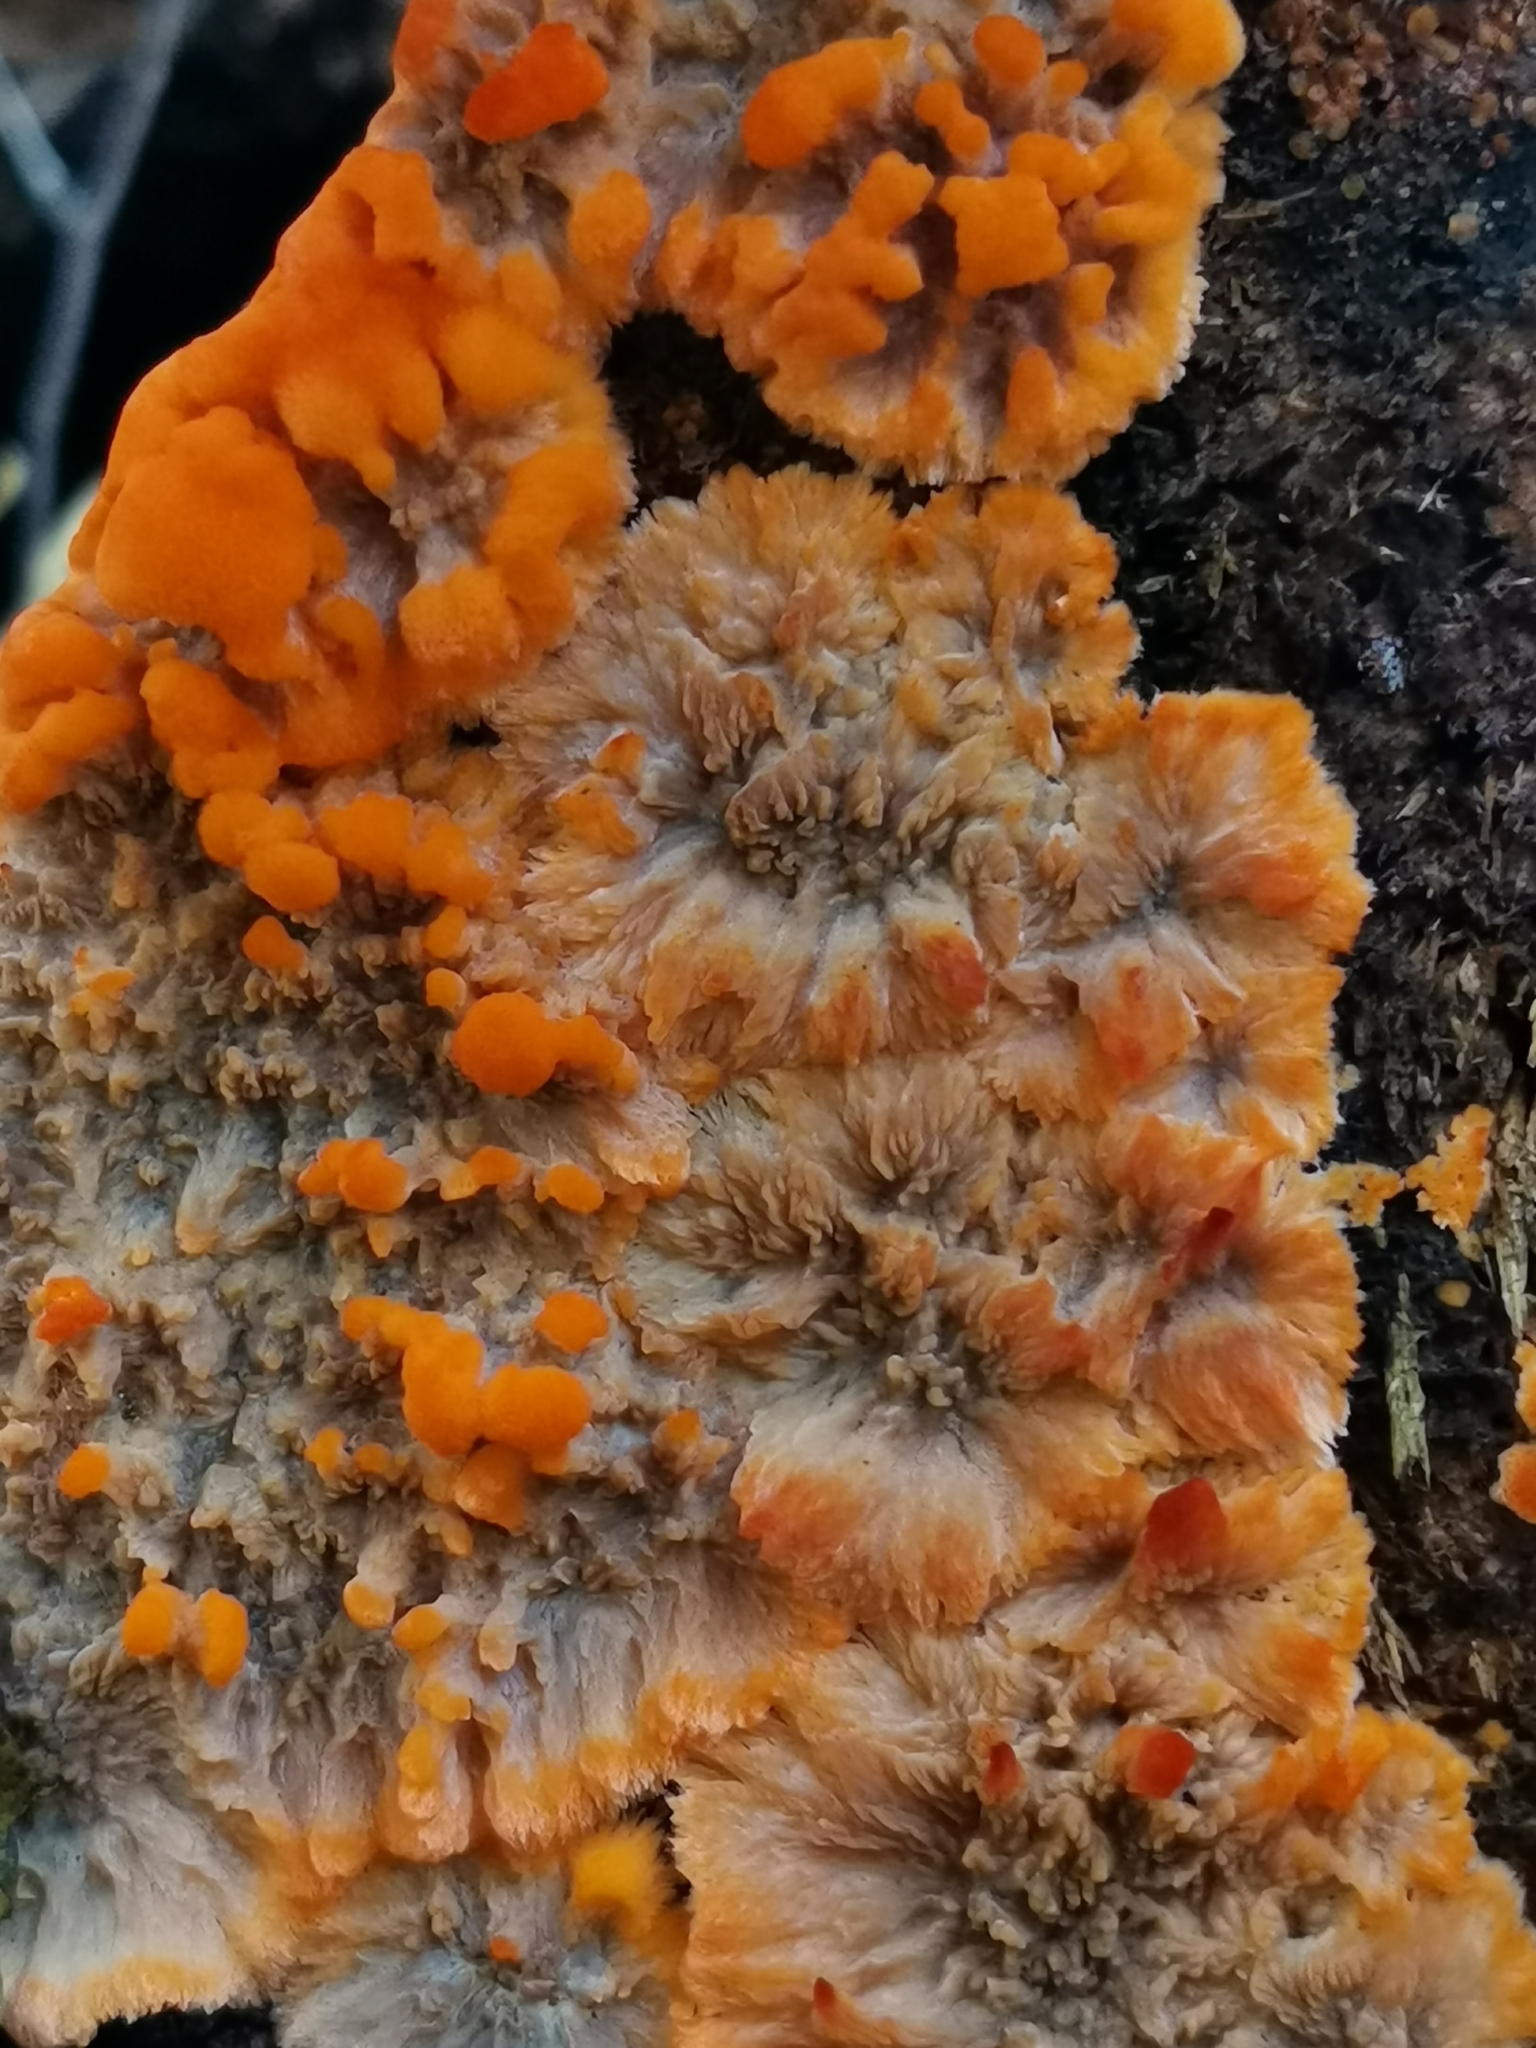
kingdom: Fungi
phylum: Basidiomycota
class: Agaricomycetes
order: Polyporales
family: Meruliaceae
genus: Phlebia
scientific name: Phlebia radiata
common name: Wrinkled crust
